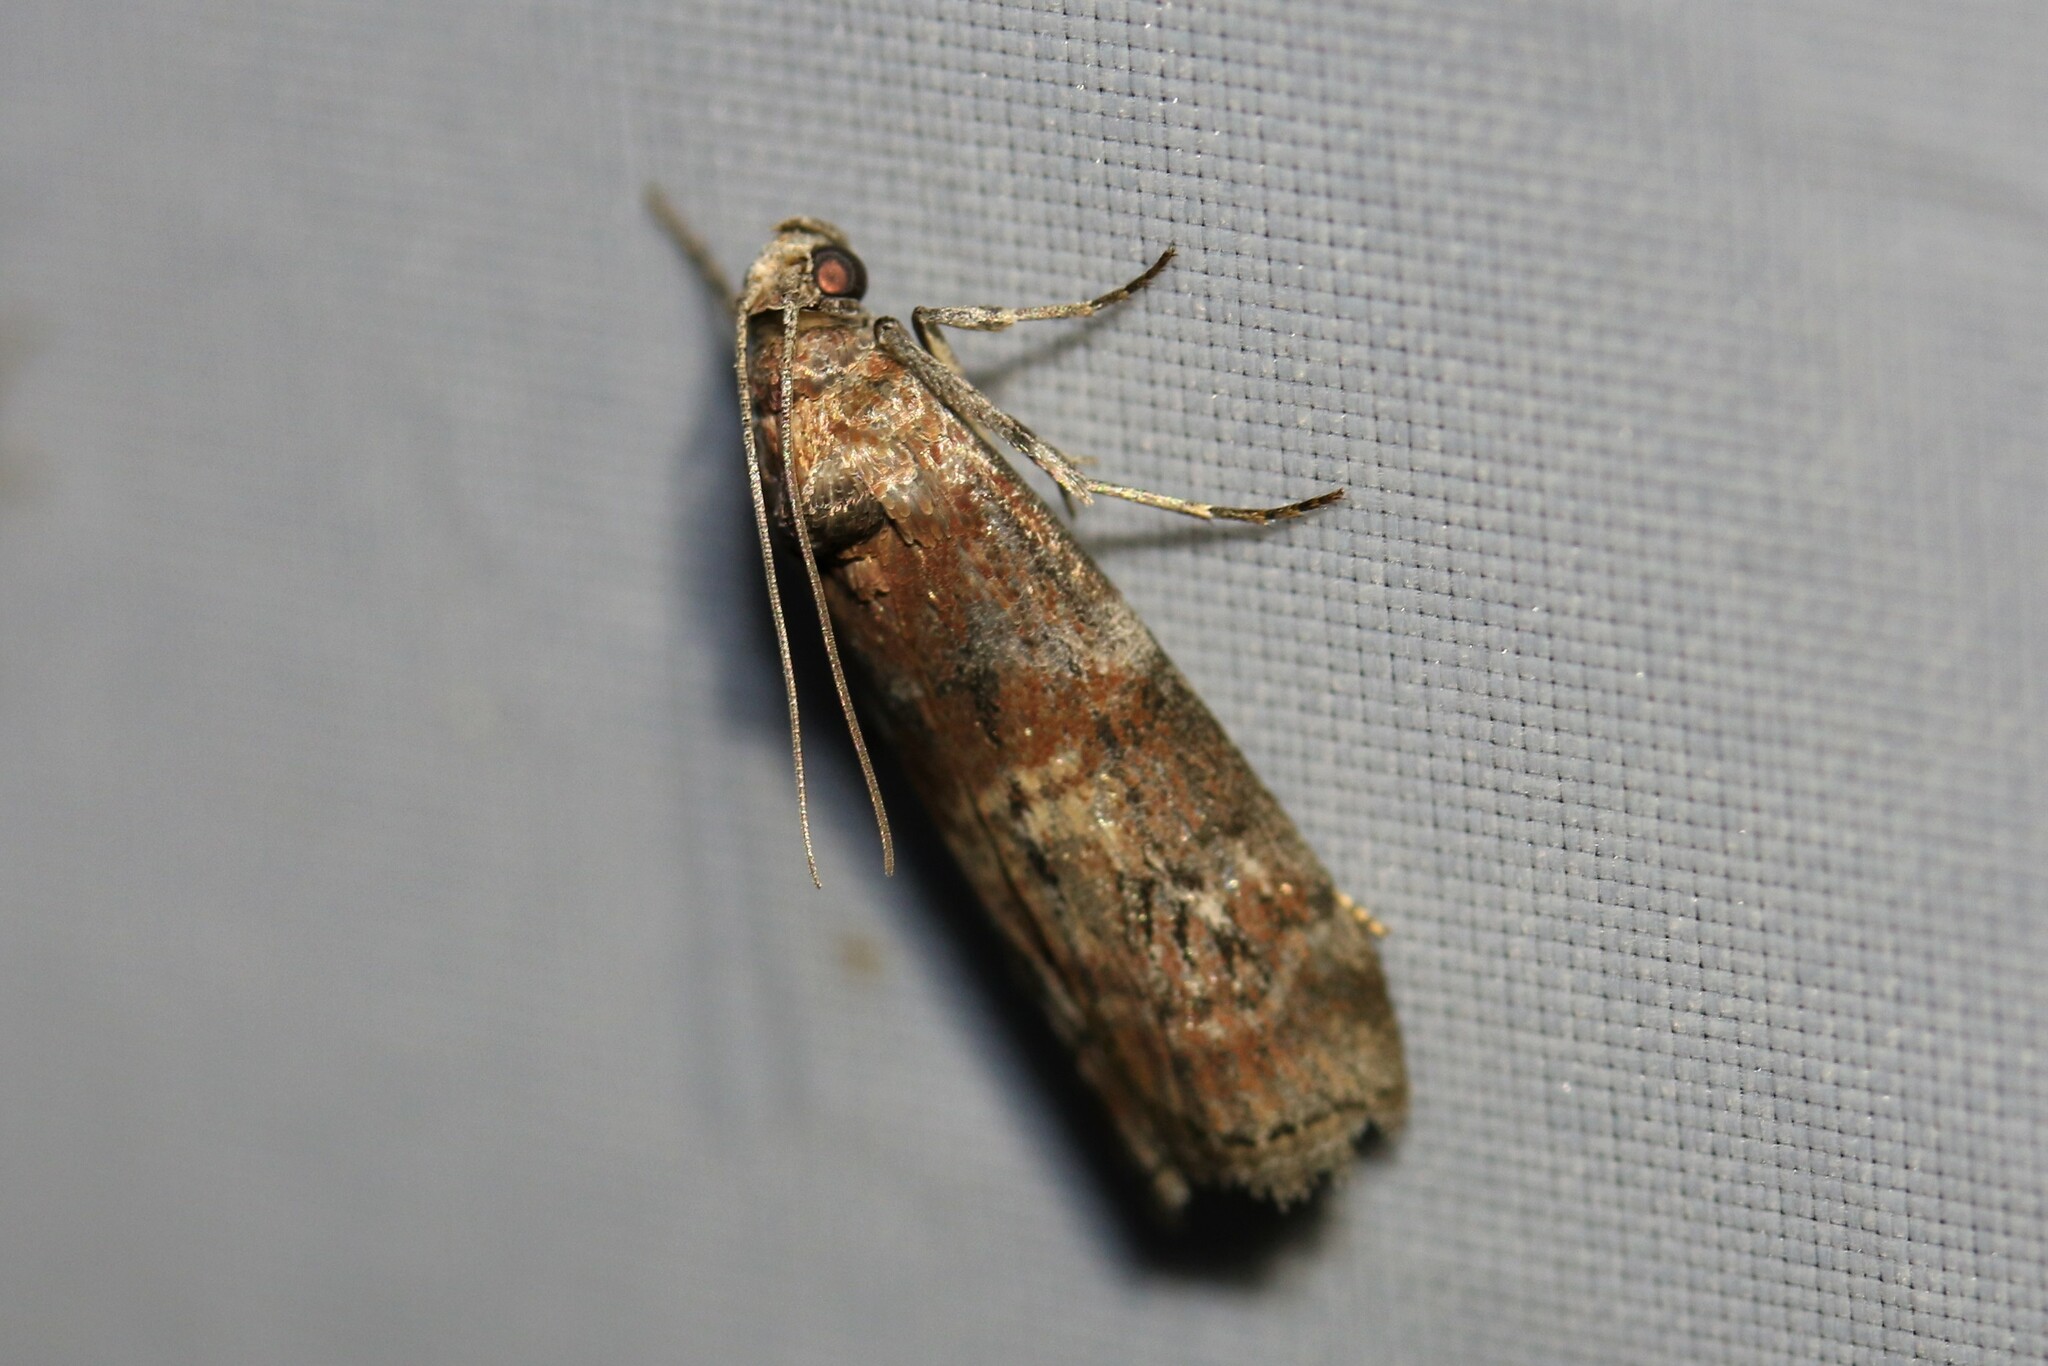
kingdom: Animalia
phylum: Arthropoda
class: Insecta
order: Lepidoptera
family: Pyralidae
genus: Phycita
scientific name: Phycita roborella
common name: Dotted oak knot-horn
